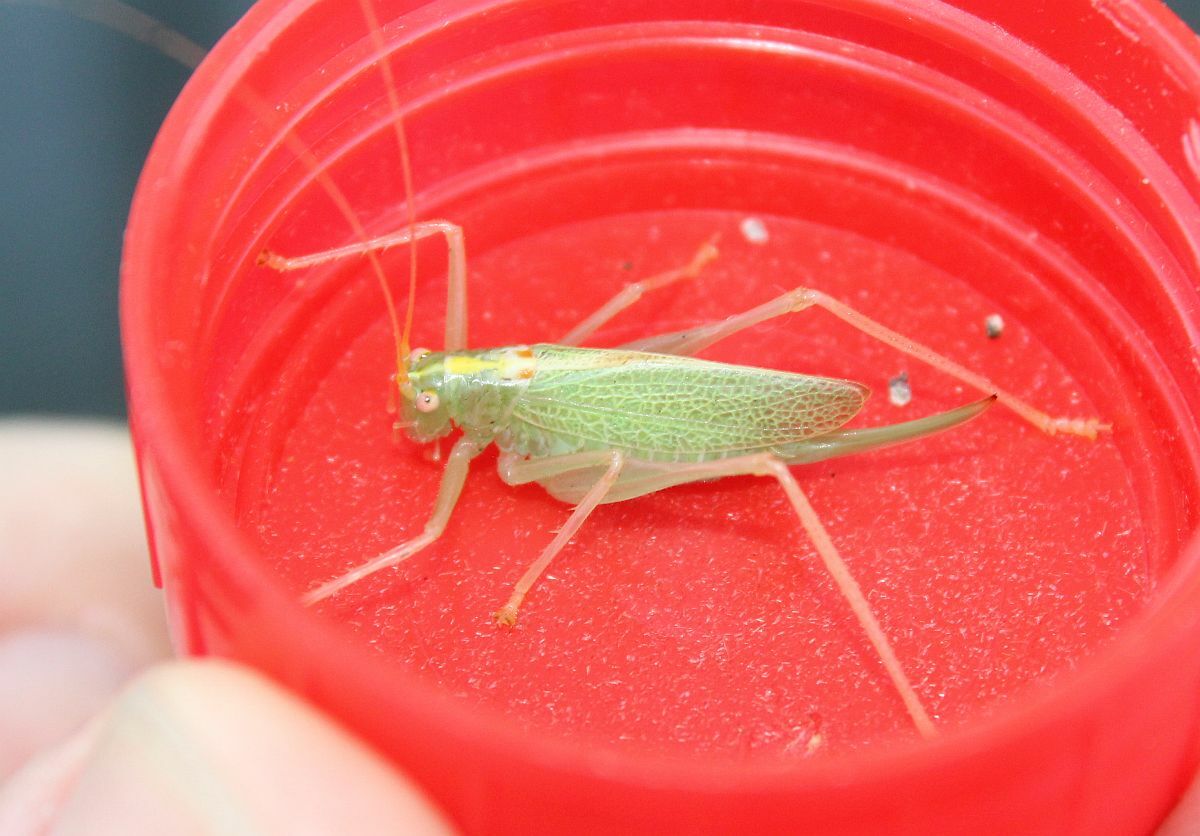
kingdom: Animalia
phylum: Arthropoda
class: Insecta
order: Orthoptera
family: Tettigoniidae
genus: Meconema
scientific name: Meconema thalassinum
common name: Oak bush-cricket
